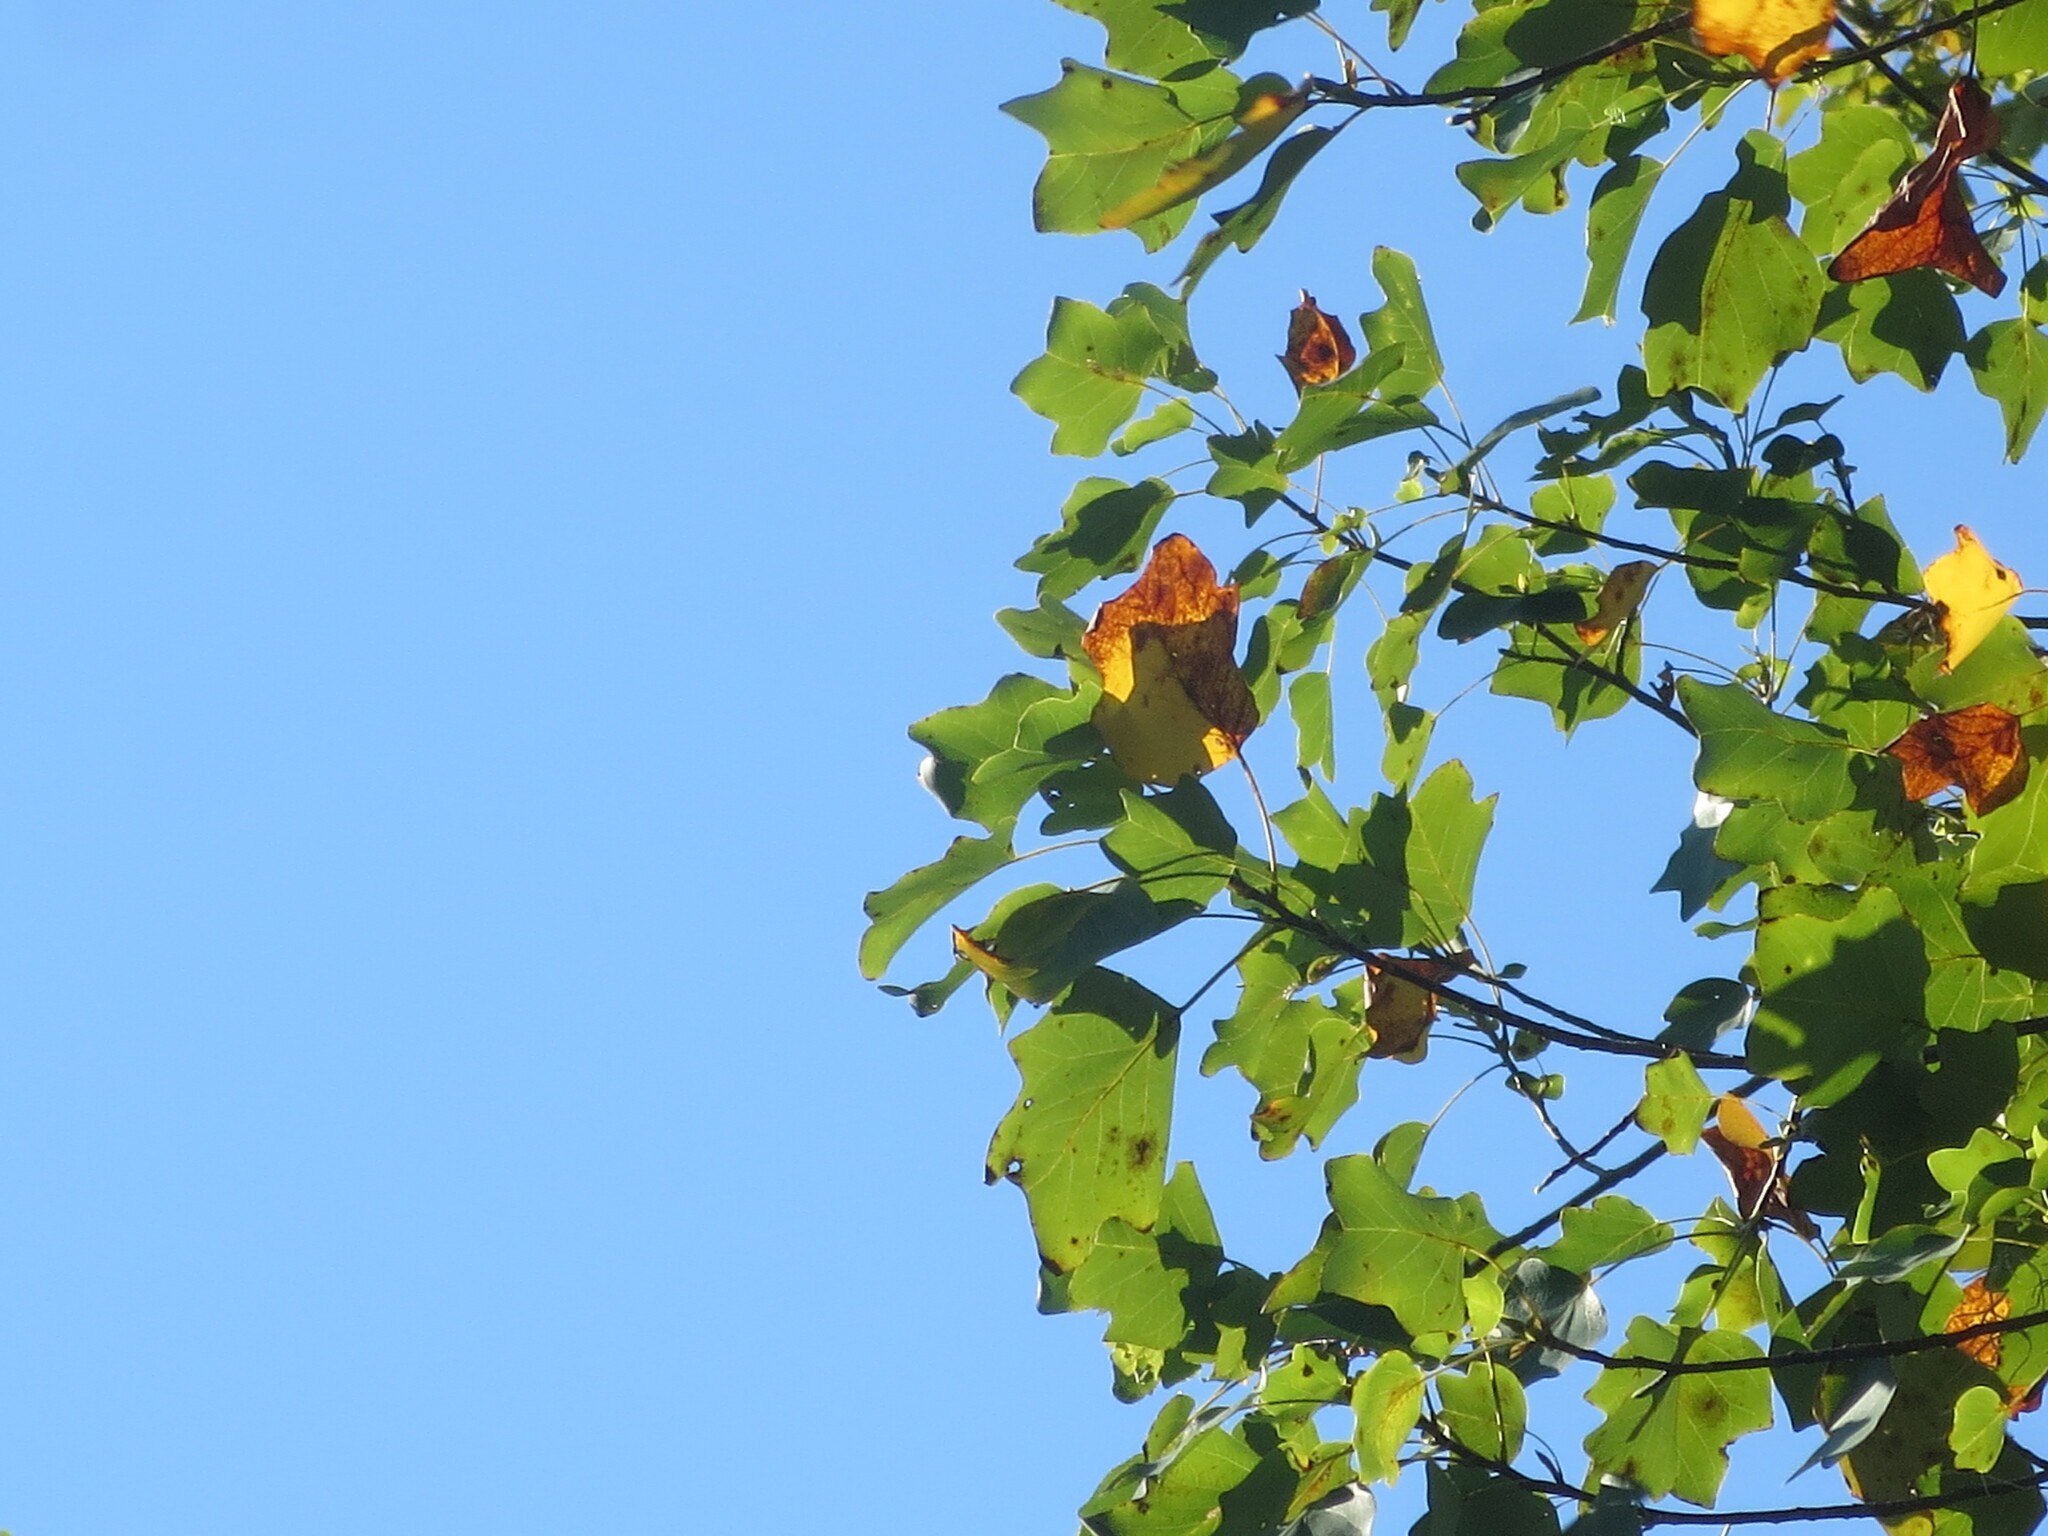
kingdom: Plantae
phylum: Tracheophyta
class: Magnoliopsida
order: Magnoliales
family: Magnoliaceae
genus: Liriodendron
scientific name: Liriodendron tulipifera
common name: Tulip tree
